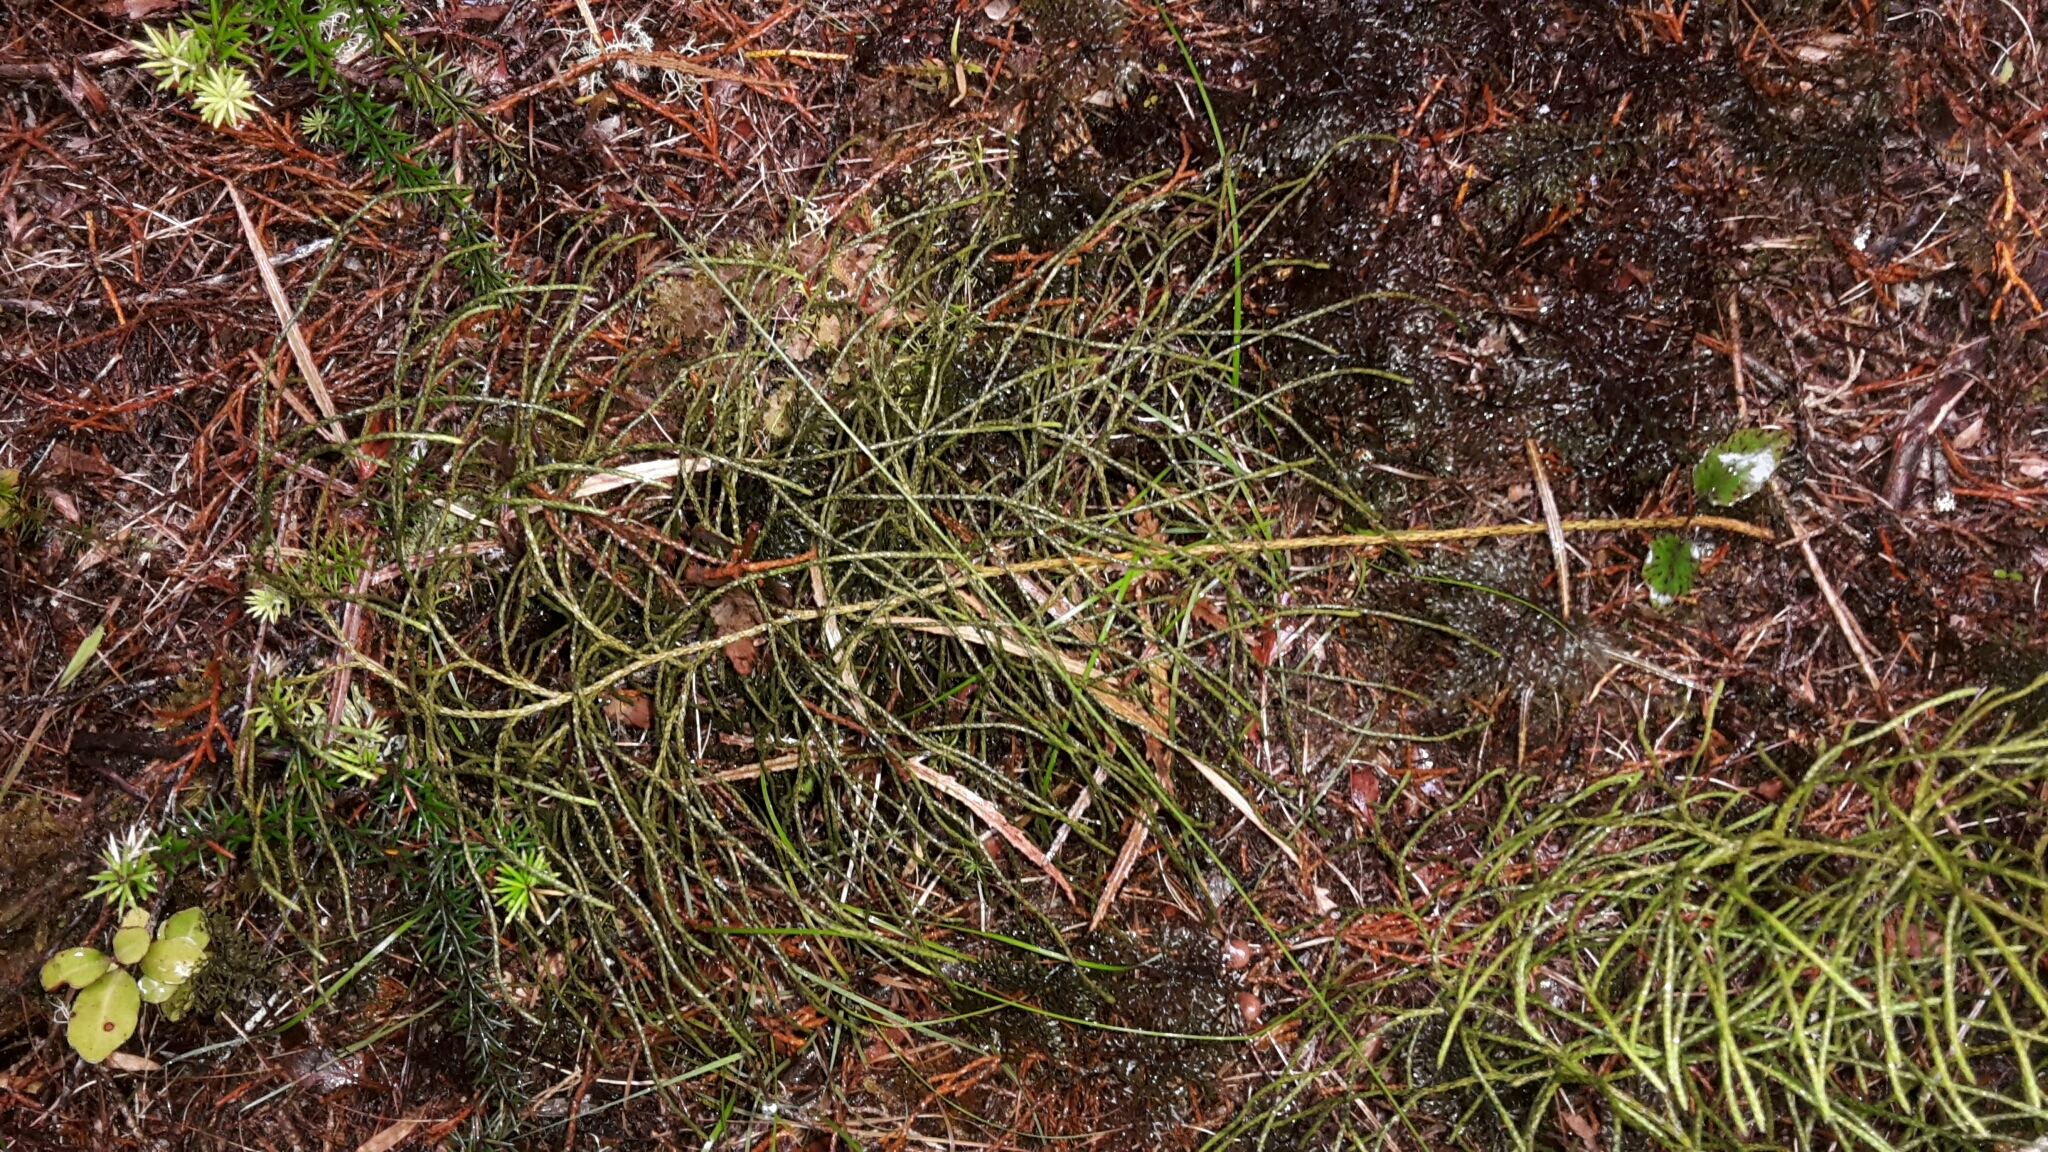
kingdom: Plantae
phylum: Tracheophyta
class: Lycopodiopsida
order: Lycopodiales
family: Lycopodiaceae
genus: Pseudolycopodium
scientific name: Pseudolycopodium densum
